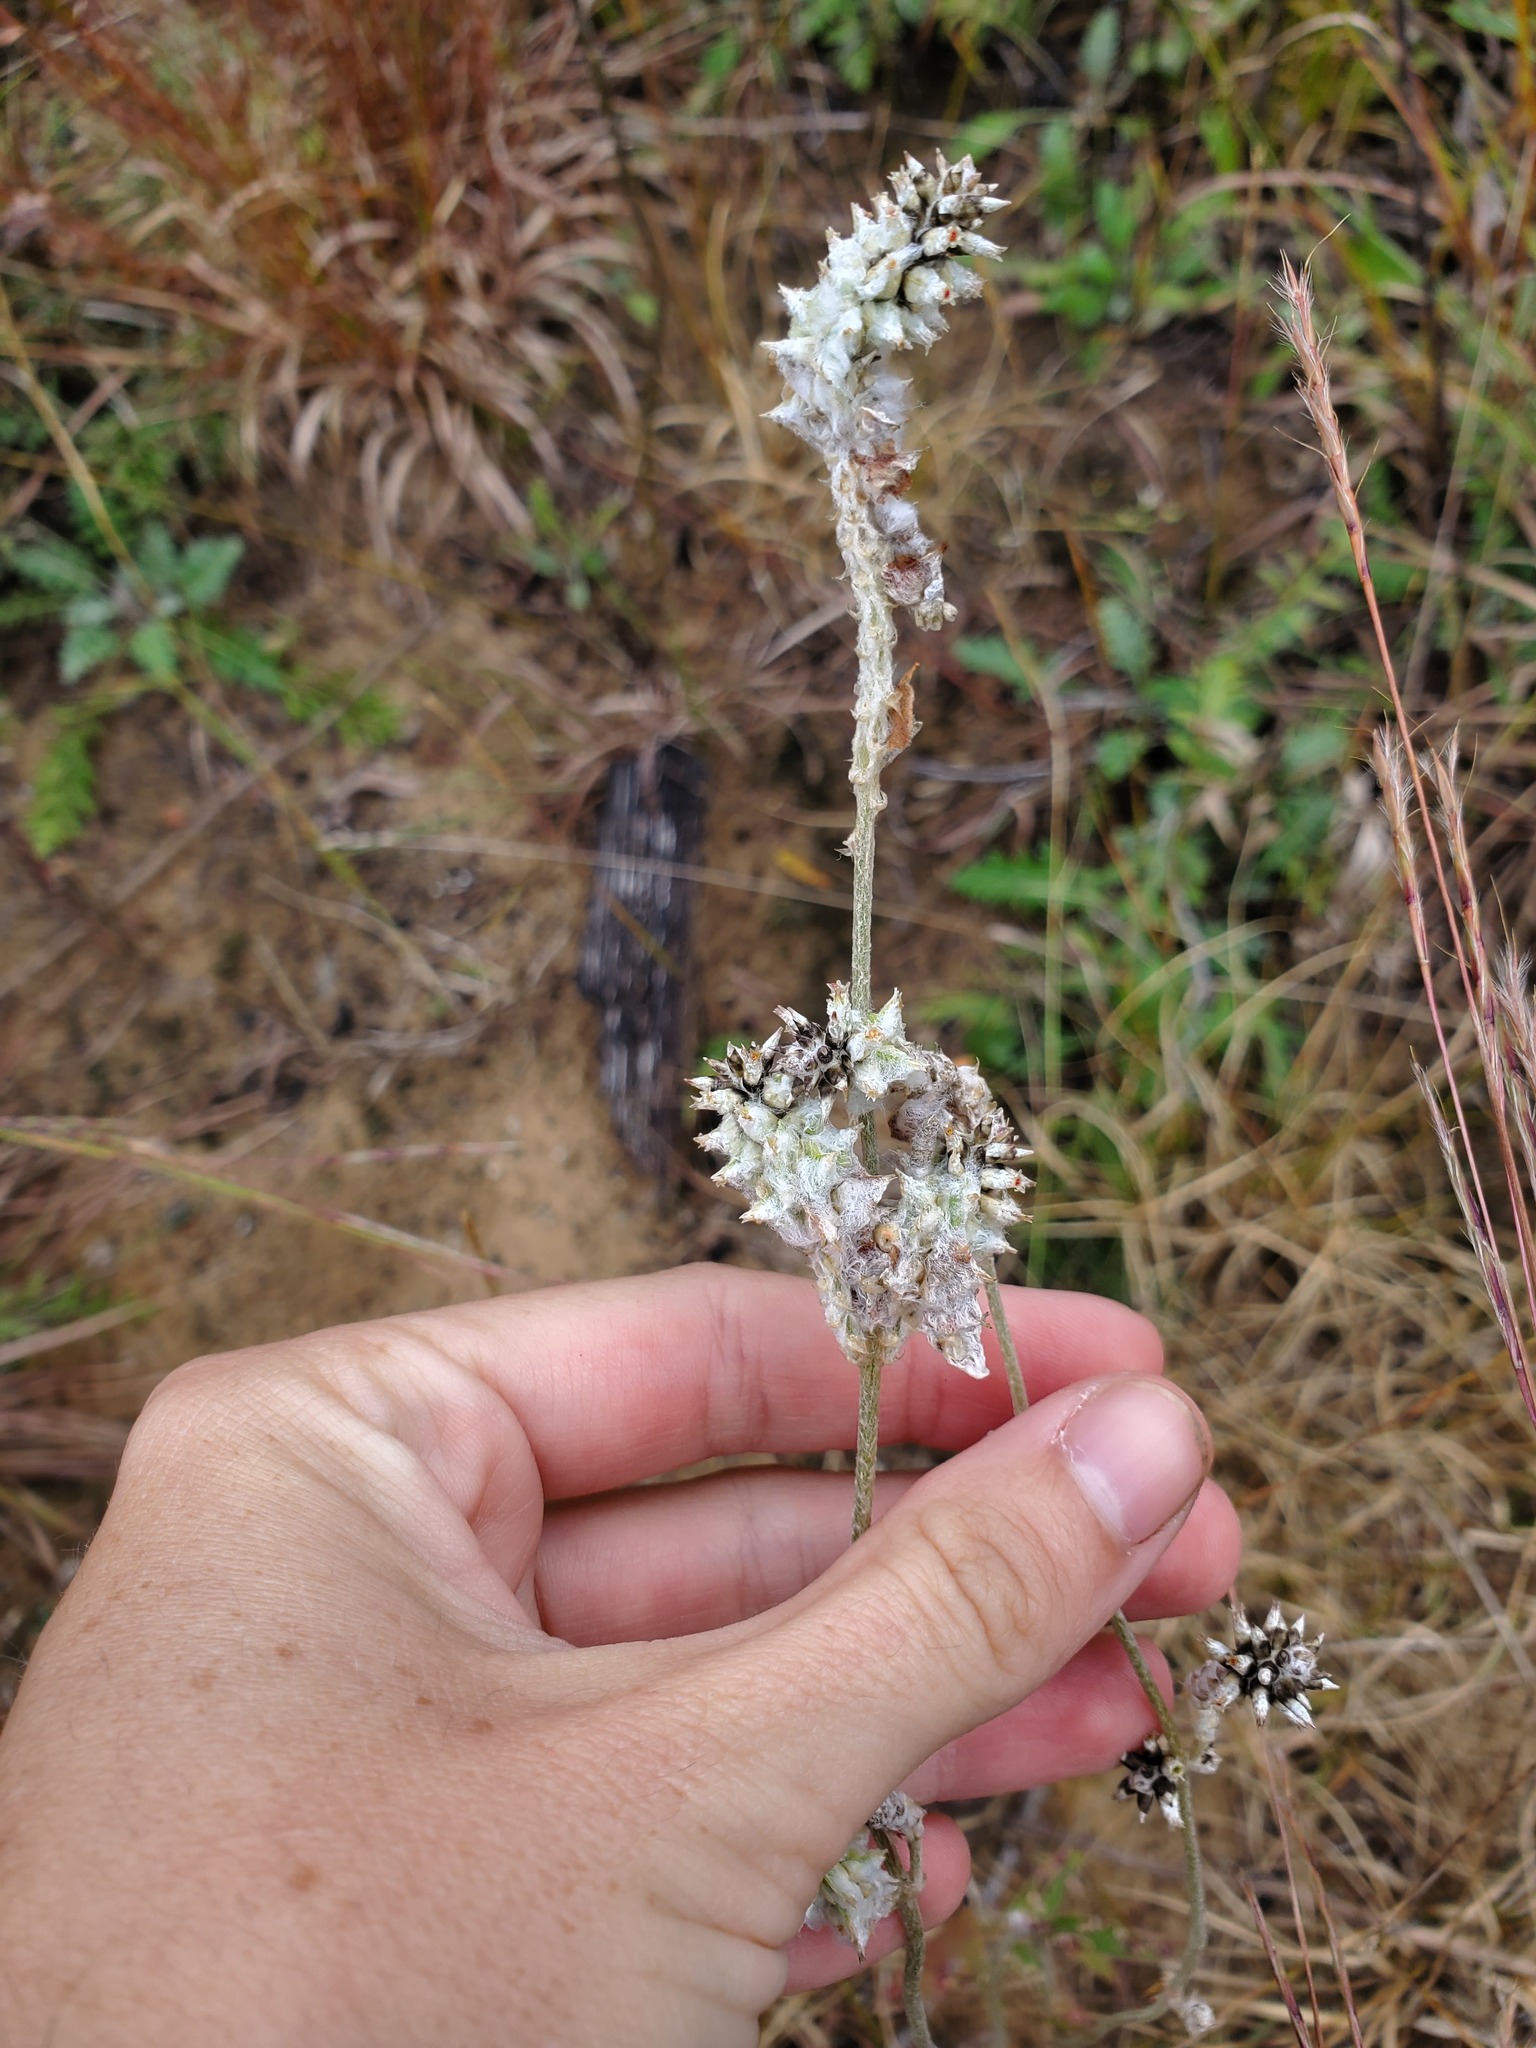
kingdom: Plantae
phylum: Tracheophyta
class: Magnoliopsida
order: Caryophyllales
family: Amaranthaceae
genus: Froelichia
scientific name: Froelichia floridana
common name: Florida snake-cotton
